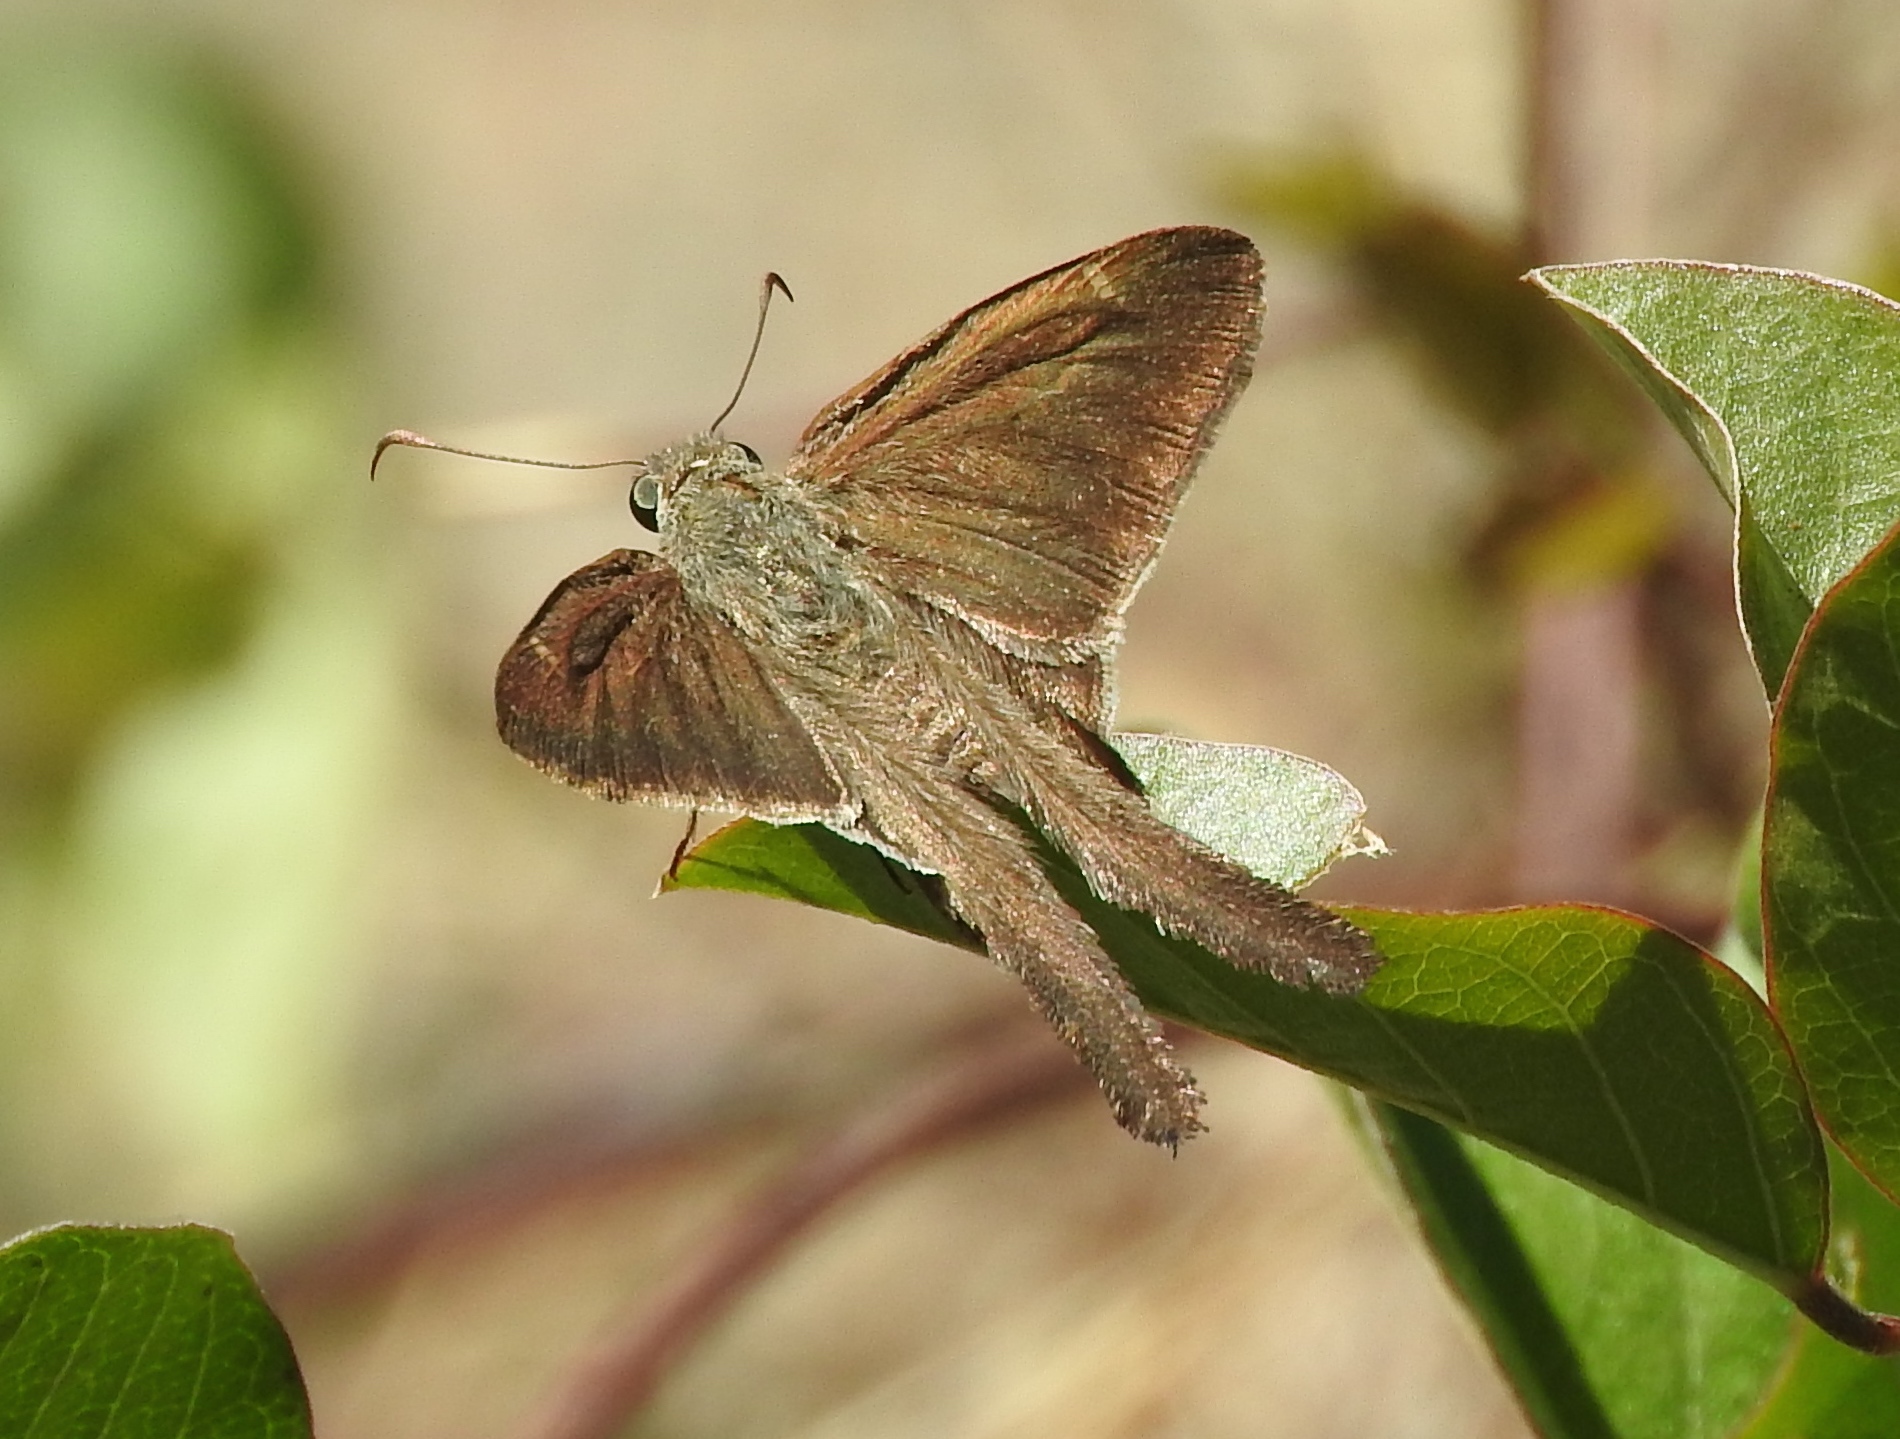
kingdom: Animalia
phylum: Arthropoda
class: Insecta
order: Lepidoptera
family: Hesperiidae
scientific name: Hesperiidae
